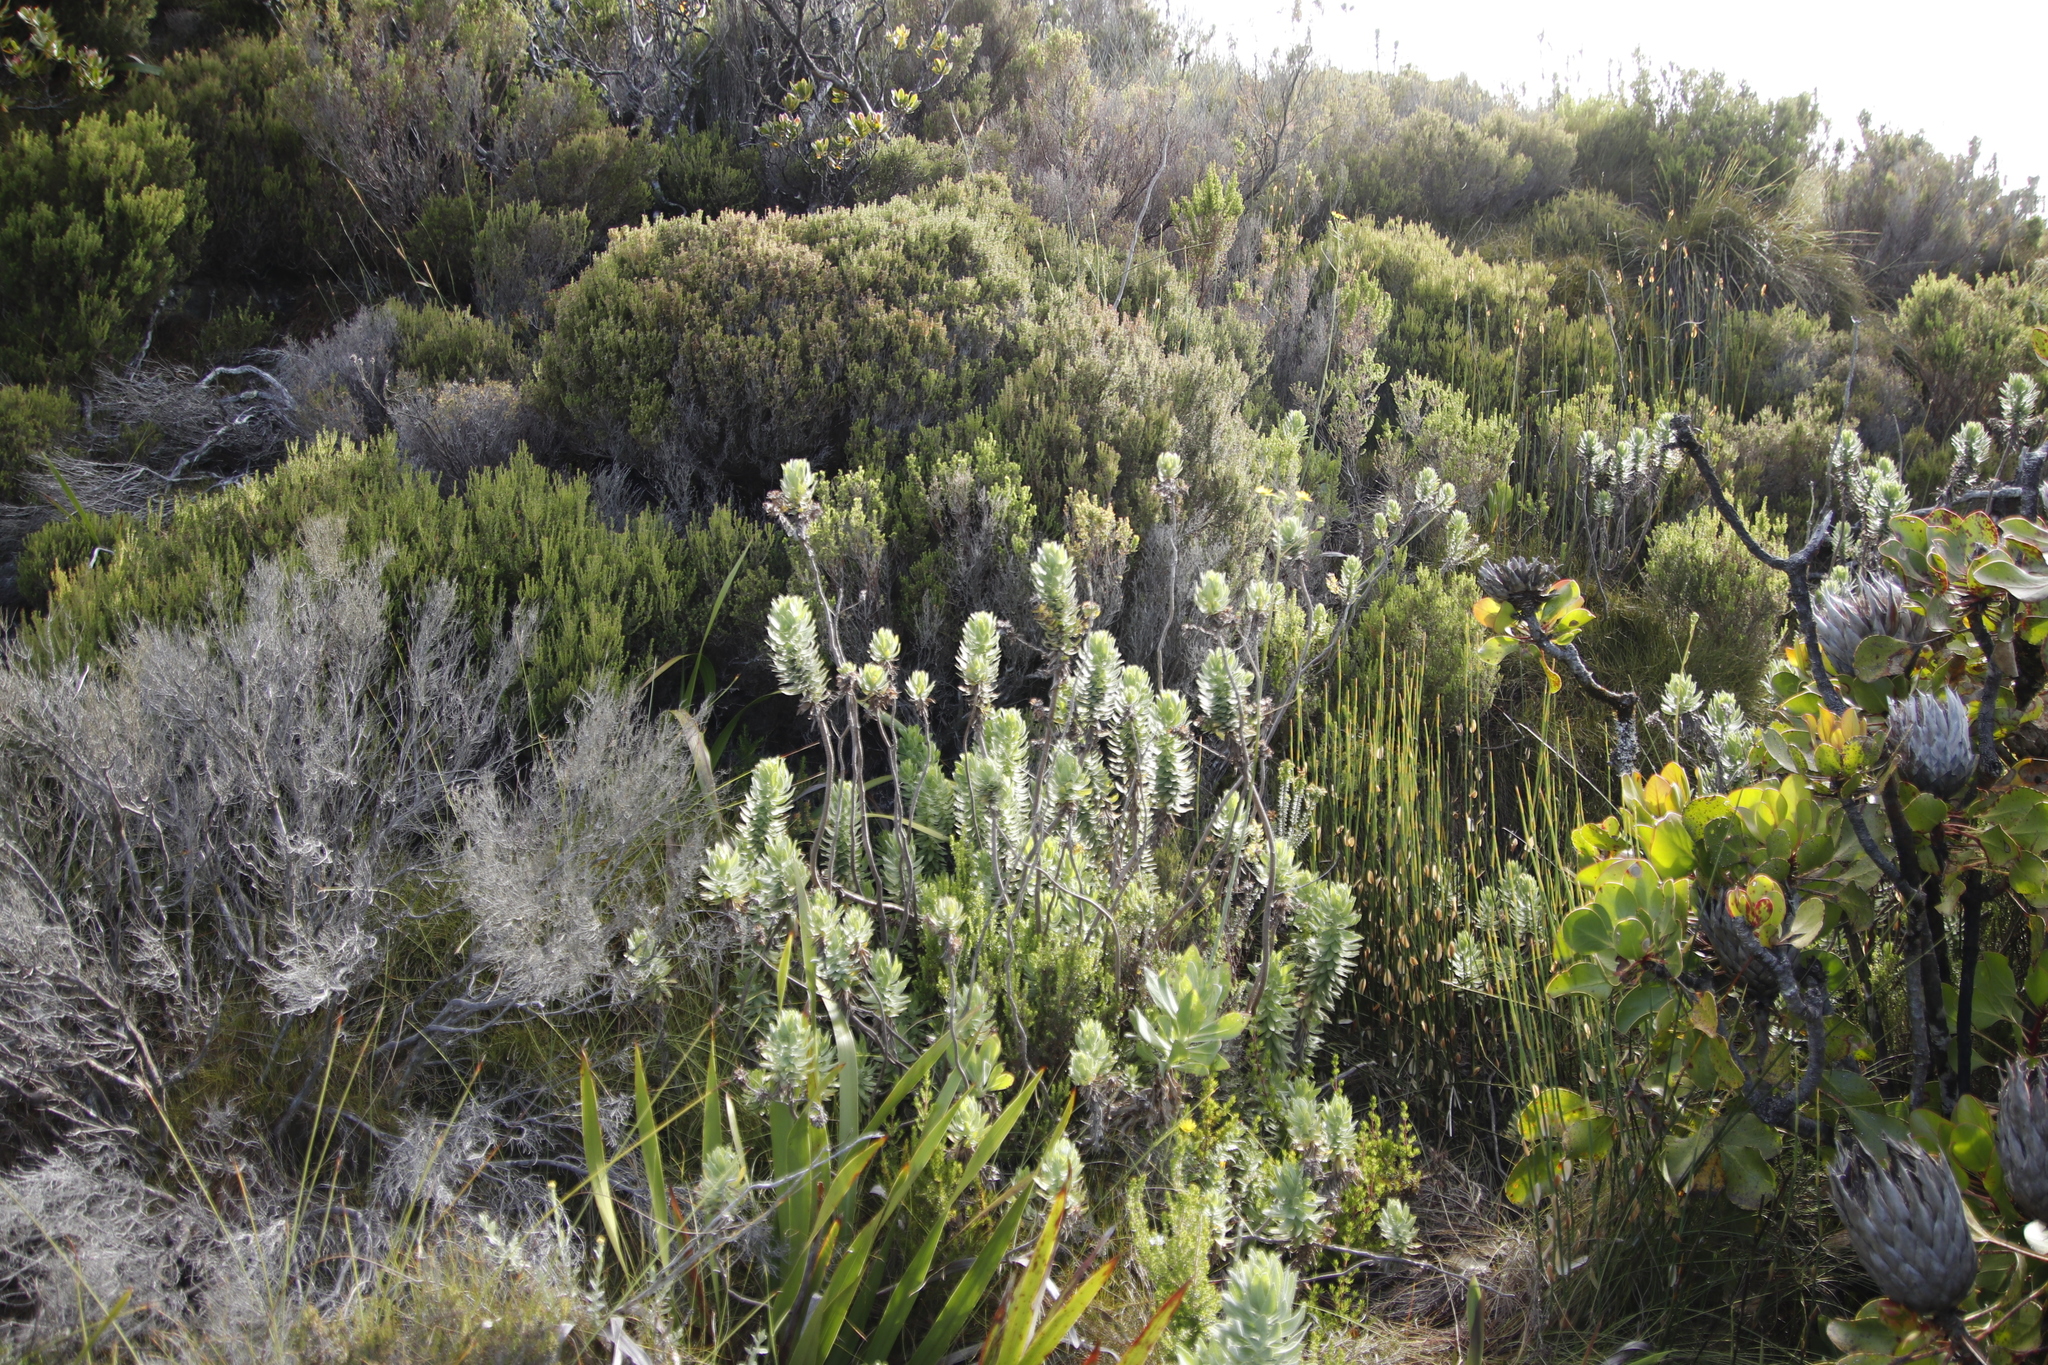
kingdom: Plantae
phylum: Tracheophyta
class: Magnoliopsida
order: Asterales
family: Asteraceae
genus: Osmitopsis
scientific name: Osmitopsis asteriscoides
